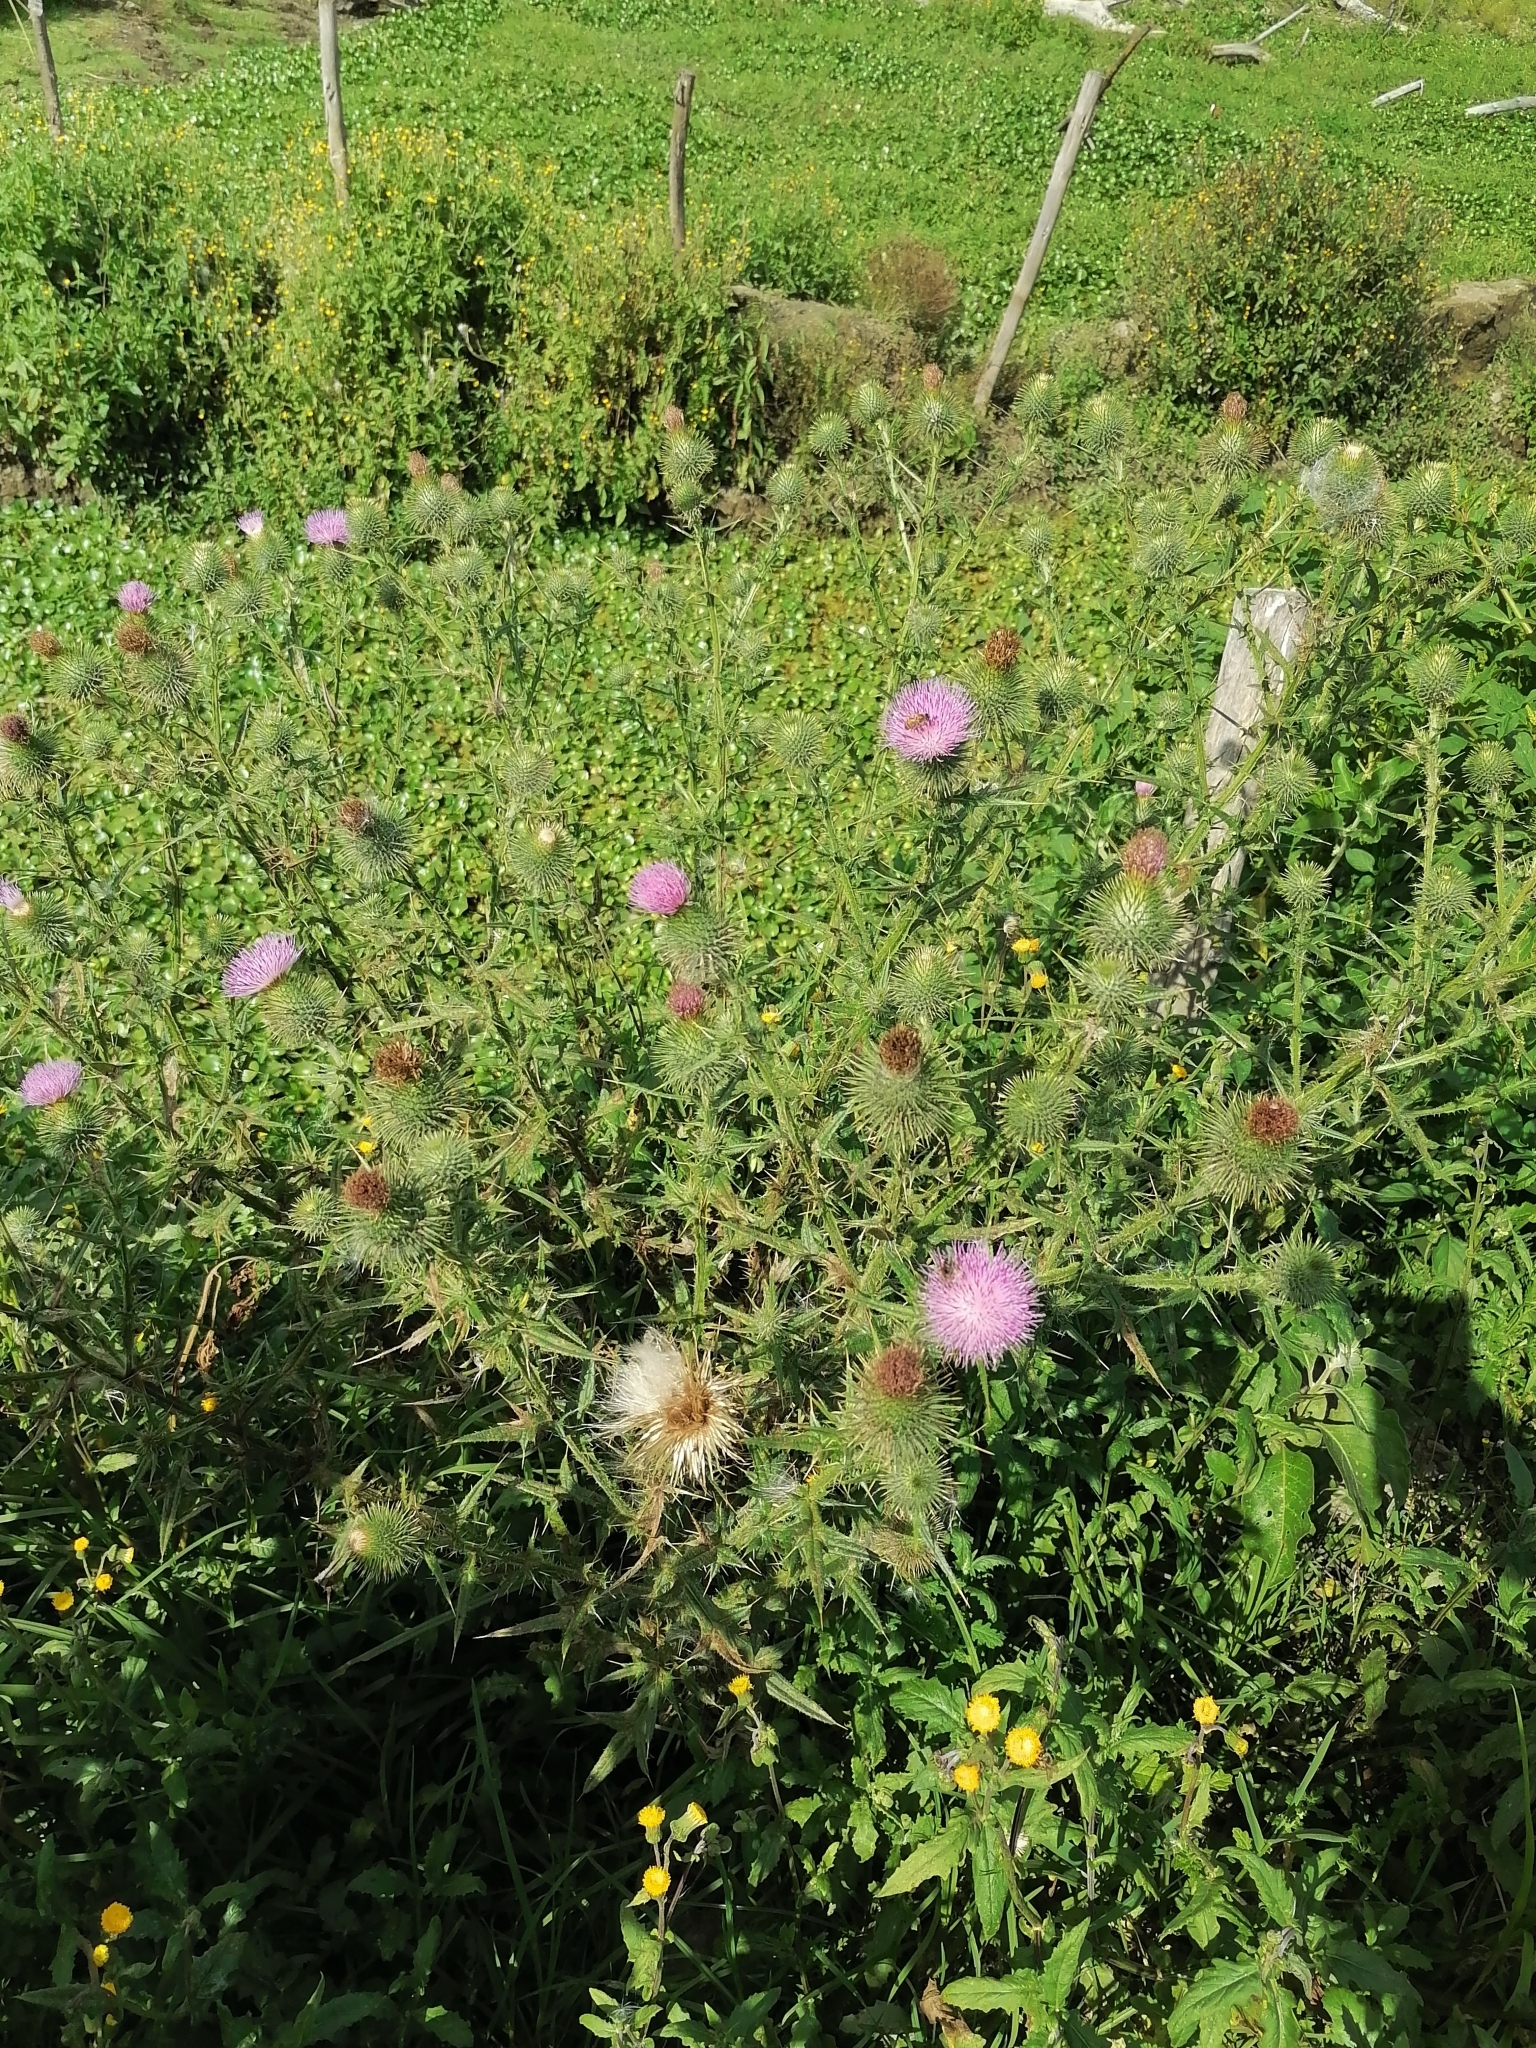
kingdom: Plantae
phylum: Tracheophyta
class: Magnoliopsida
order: Asterales
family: Asteraceae
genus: Cirsium
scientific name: Cirsium vulgare
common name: Bull thistle
